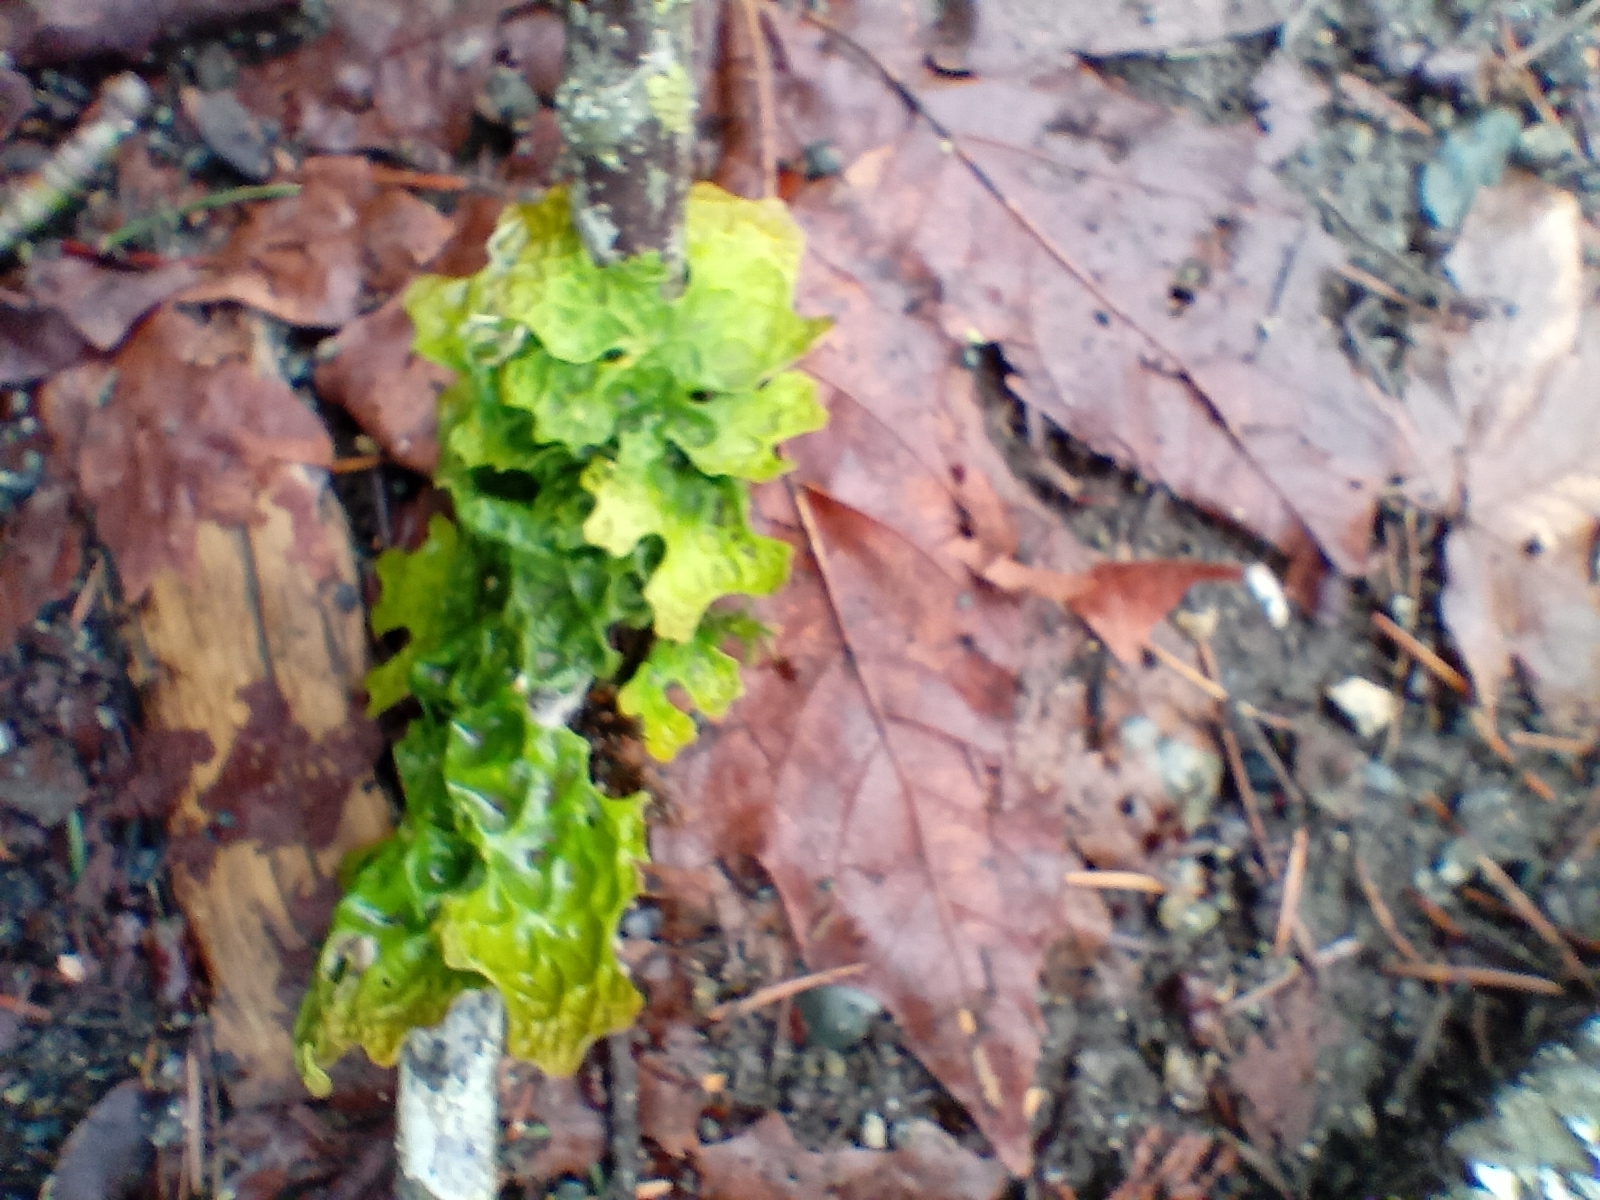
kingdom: Fungi
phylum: Ascomycota
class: Lecanoromycetes
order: Peltigerales
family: Lobariaceae
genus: Lobaria
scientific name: Lobaria pulmonaria
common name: Lungwort
